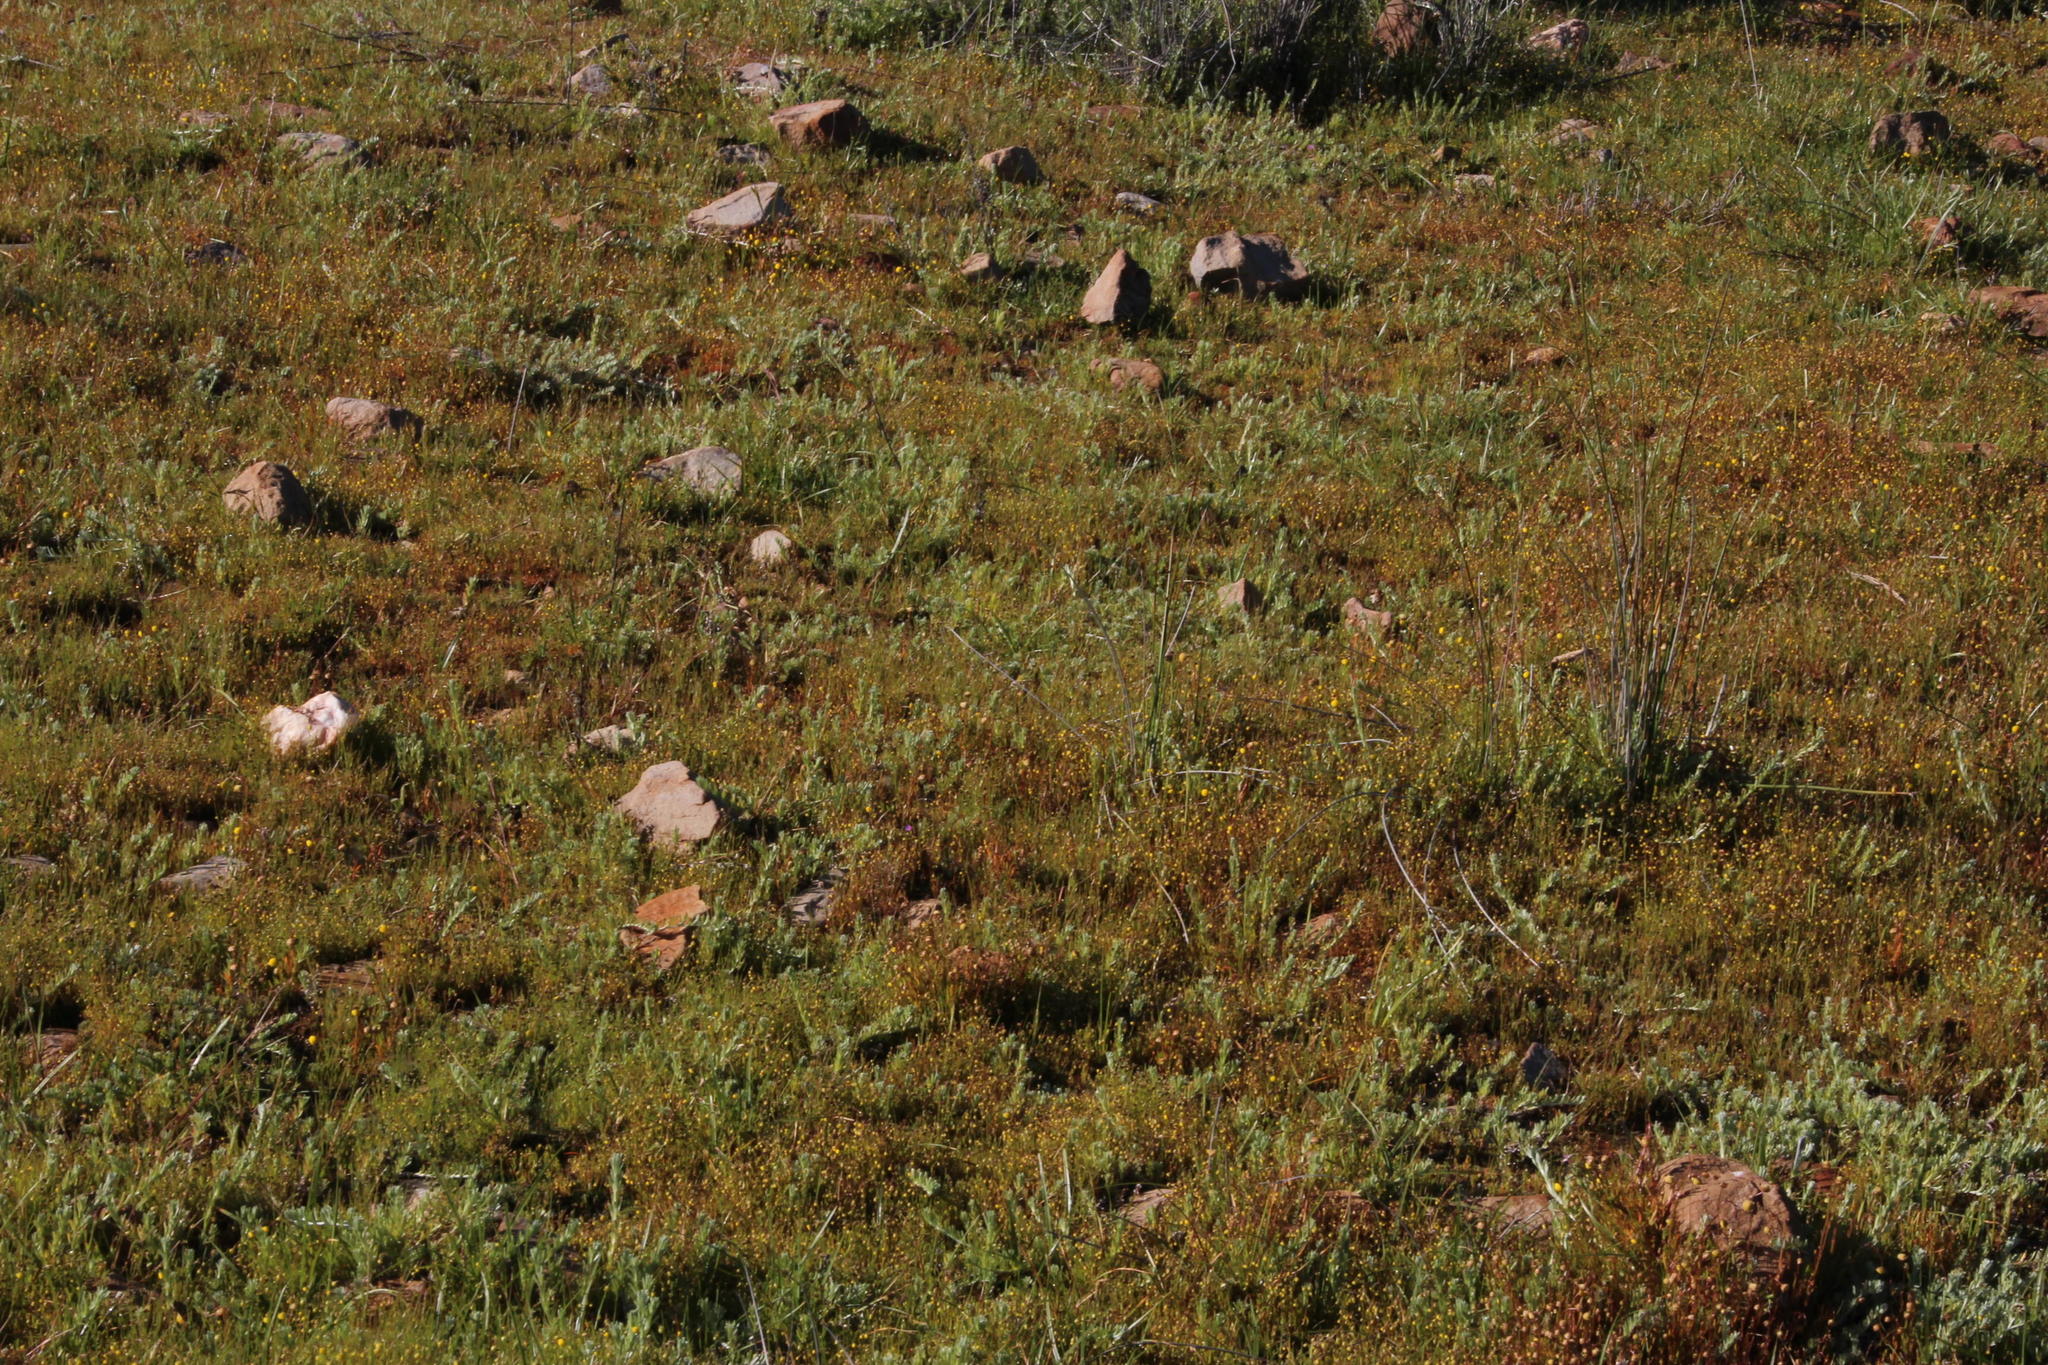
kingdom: Plantae
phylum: Tracheophyta
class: Magnoliopsida
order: Asterales
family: Asteraceae
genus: Cotula
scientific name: Cotula coronopifolia
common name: Buttonweed
